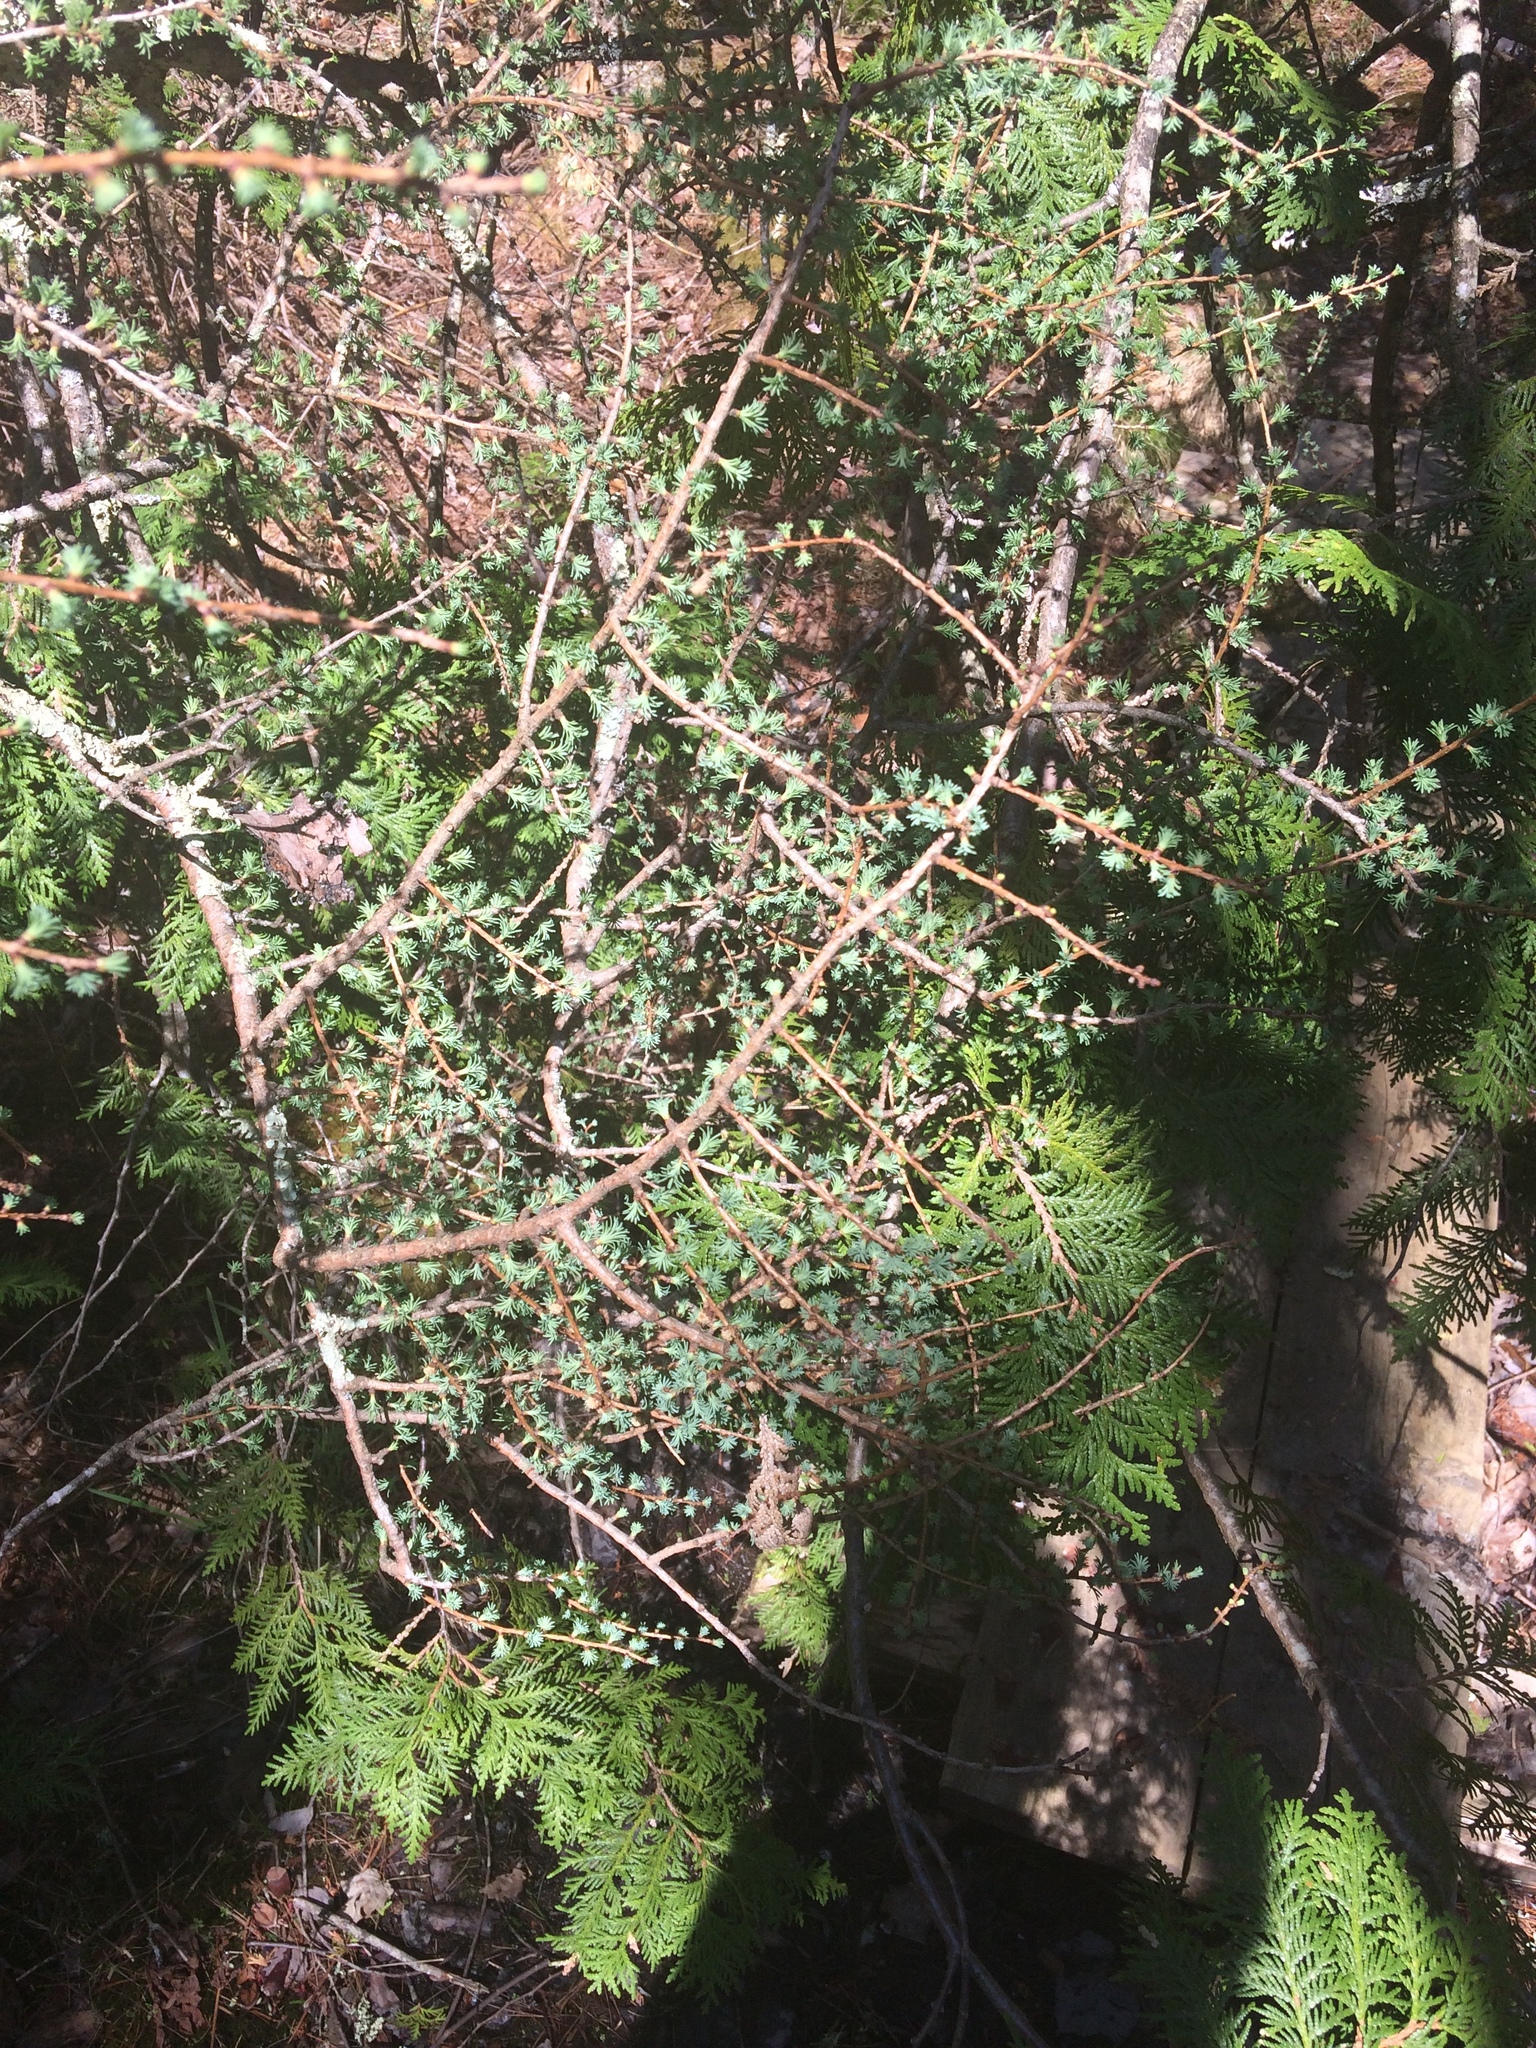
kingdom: Plantae
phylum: Tracheophyta
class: Pinopsida
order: Pinales
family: Pinaceae
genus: Larix
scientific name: Larix laricina
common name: American larch
